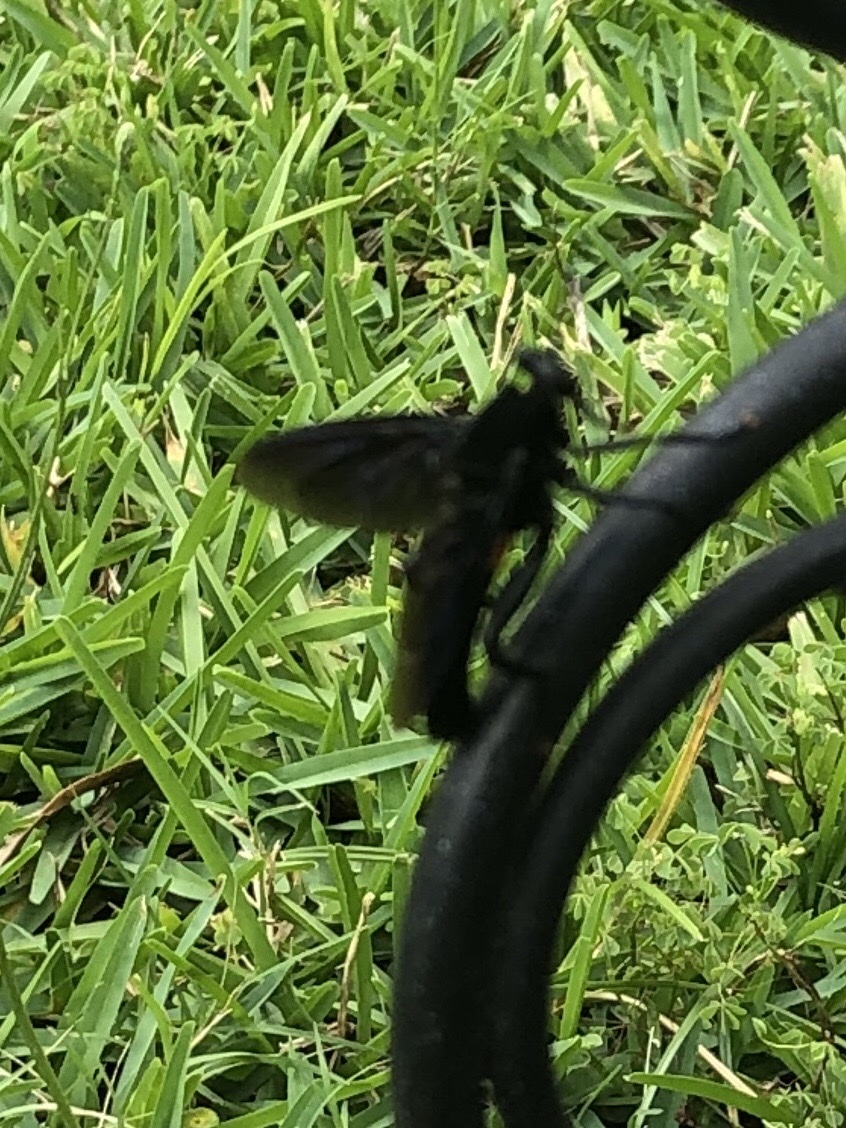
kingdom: Animalia
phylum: Arthropoda
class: Insecta
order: Diptera
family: Mydidae
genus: Mydas
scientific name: Mydas clavatus
